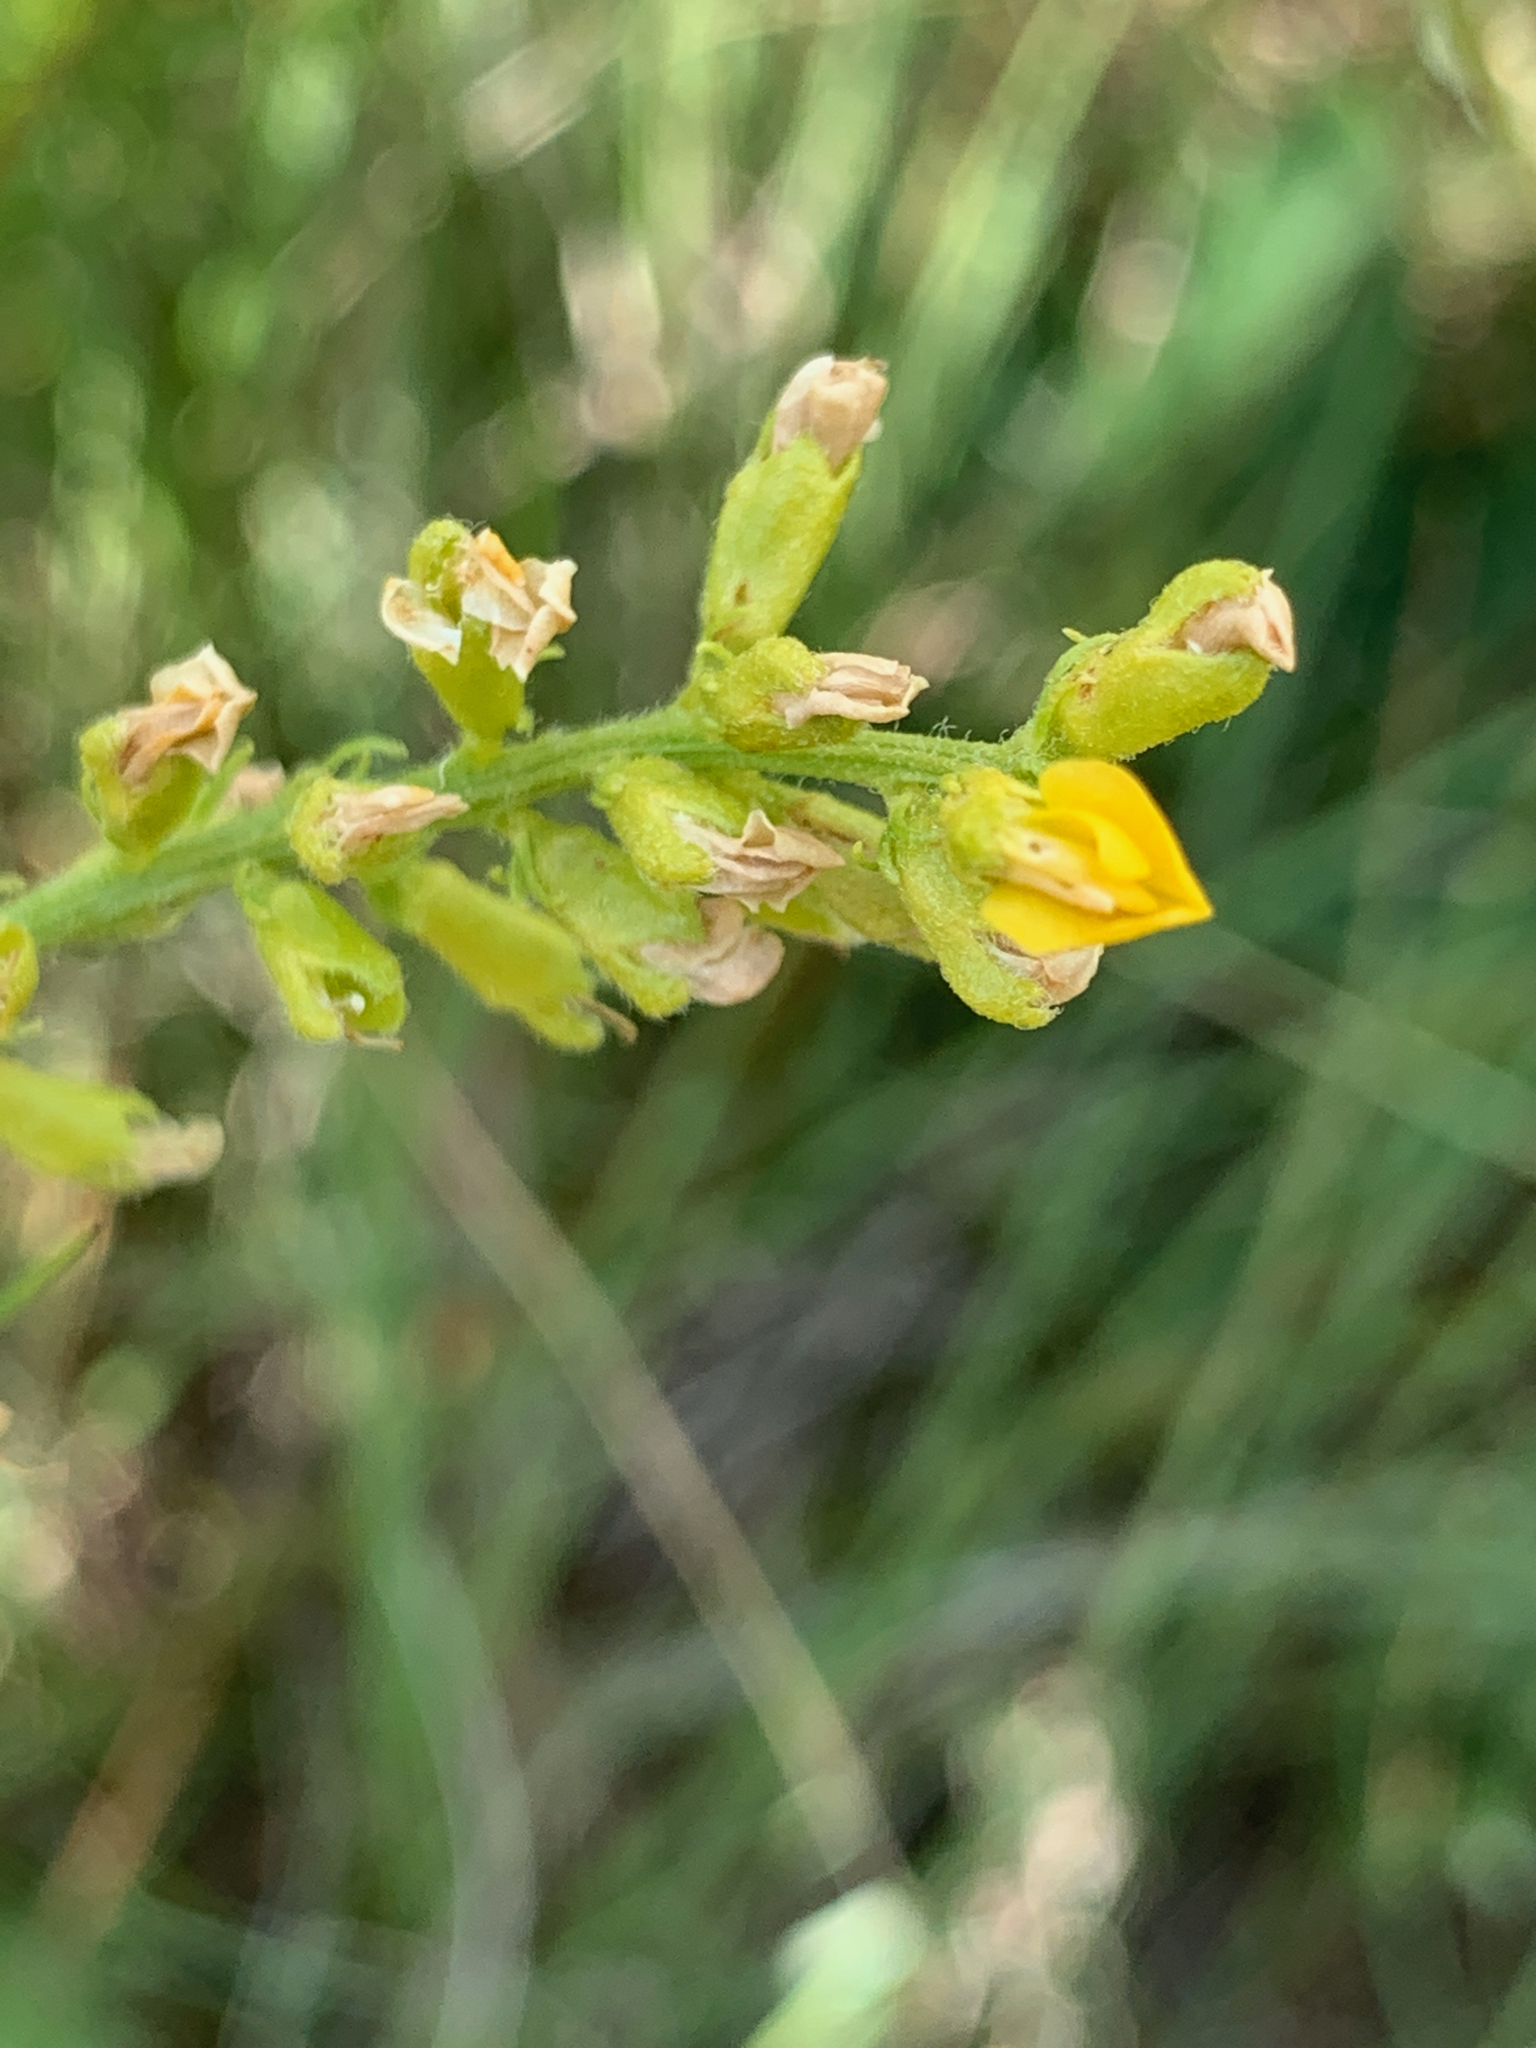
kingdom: Plantae
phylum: Tracheophyta
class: Magnoliopsida
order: Fabales
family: Fabaceae
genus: Melolobium
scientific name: Melolobium wilmsii
